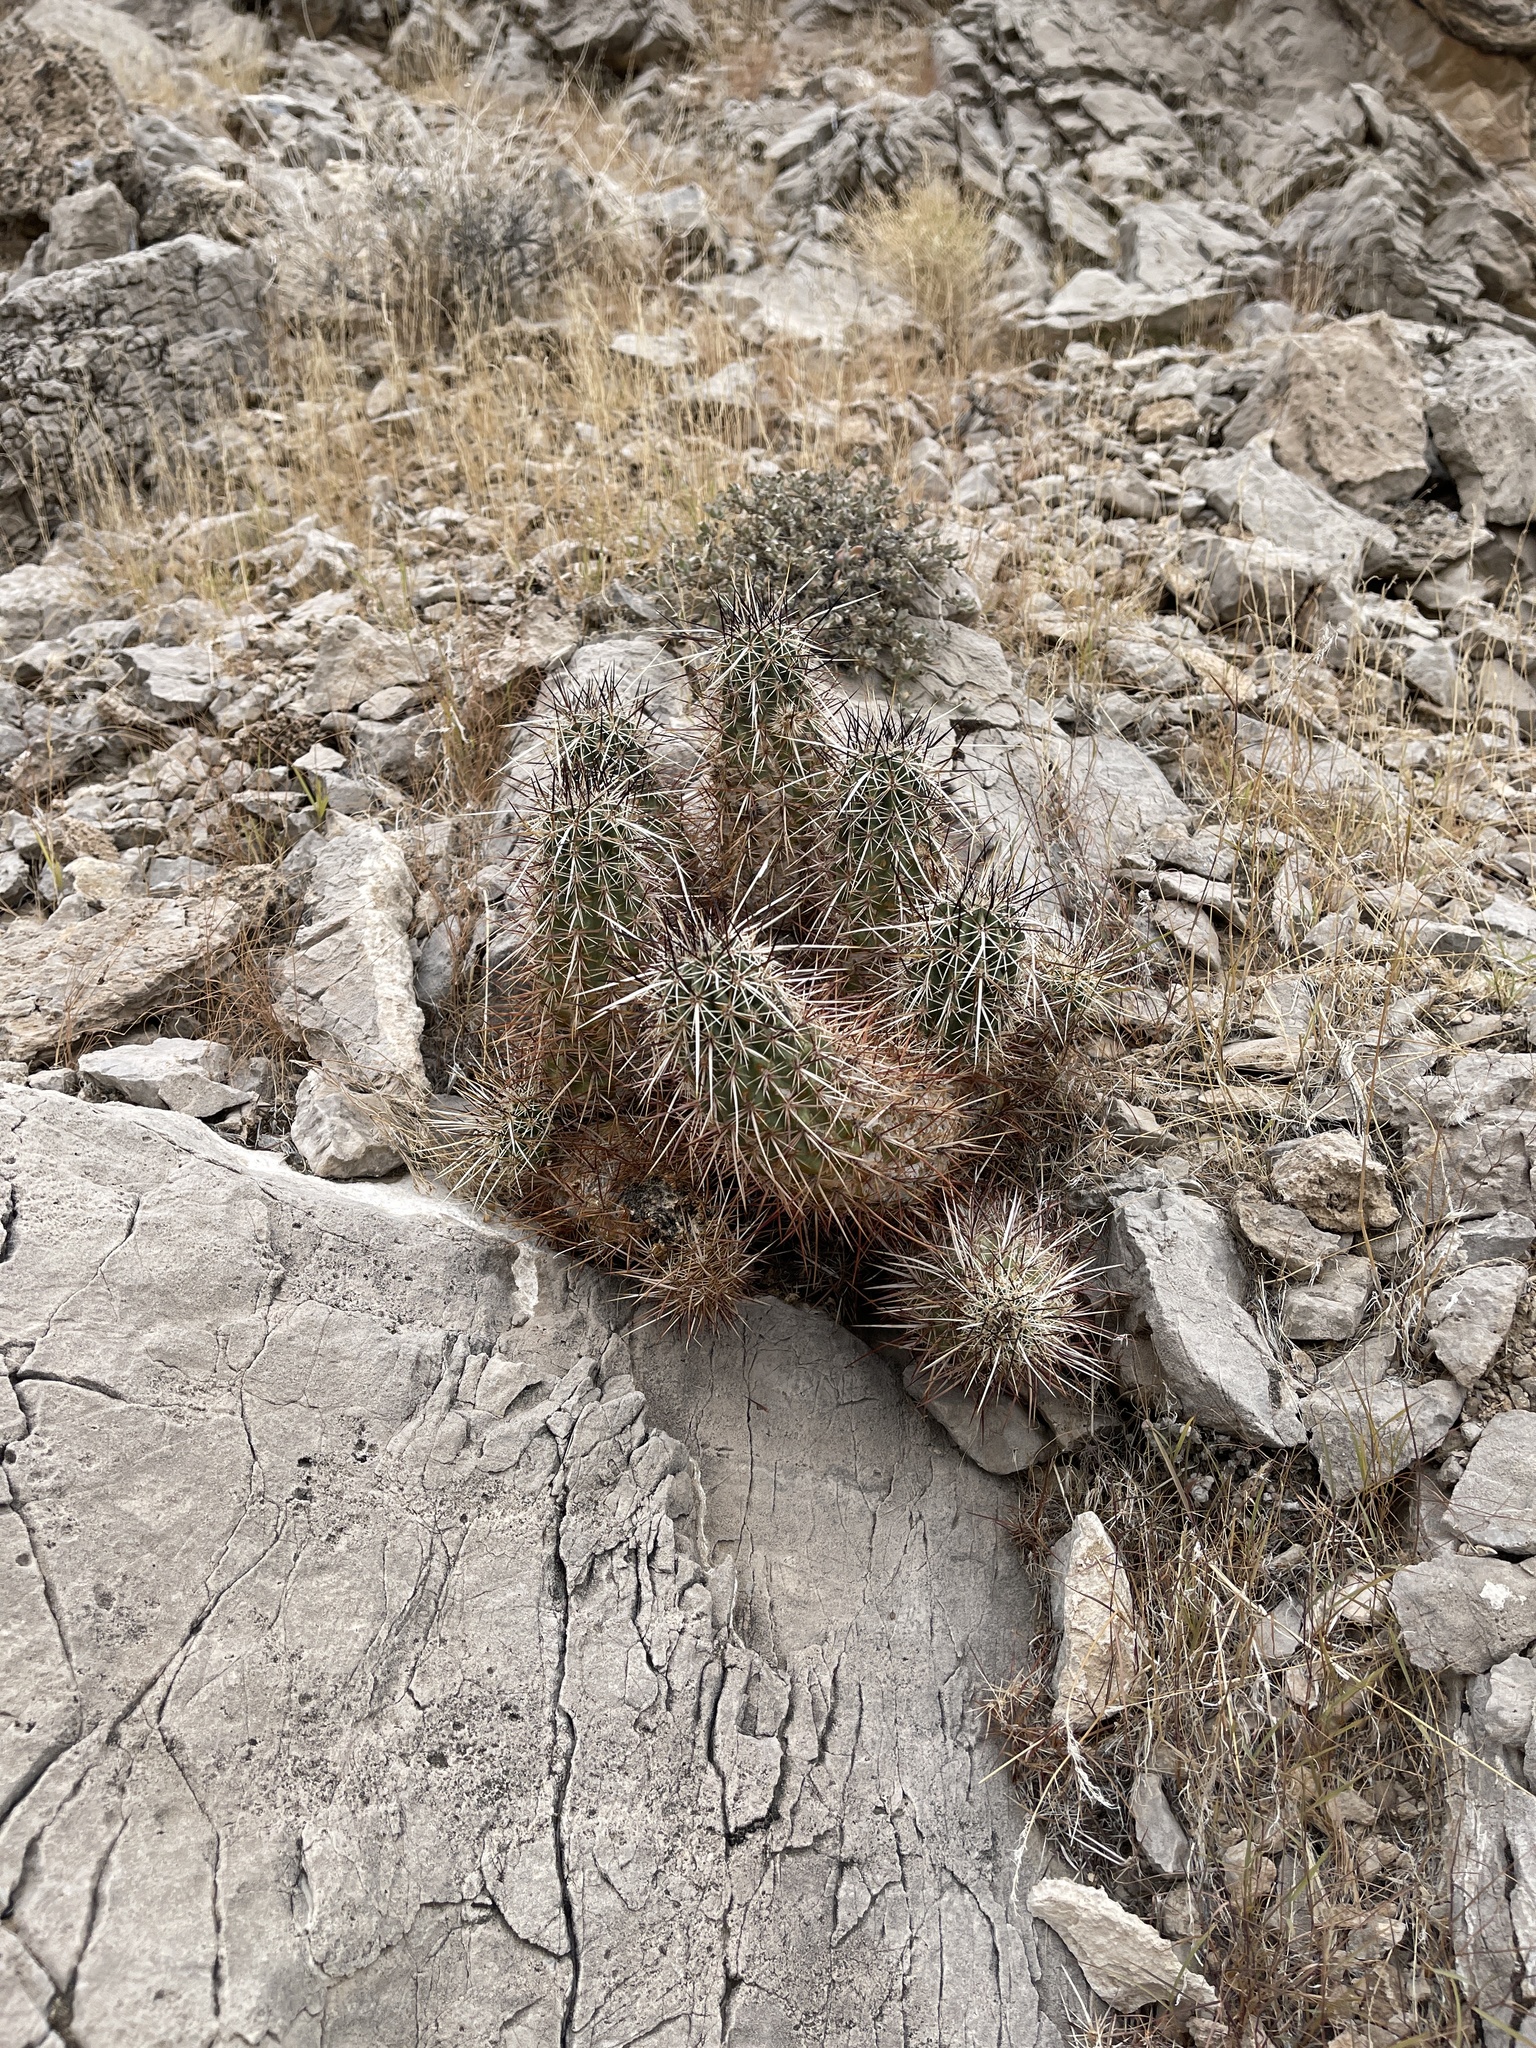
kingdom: Plantae
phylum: Tracheophyta
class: Magnoliopsida
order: Caryophyllales
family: Cactaceae
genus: Echinocereus
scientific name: Echinocereus engelmannii
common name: Engelmann's hedgehog cactus
